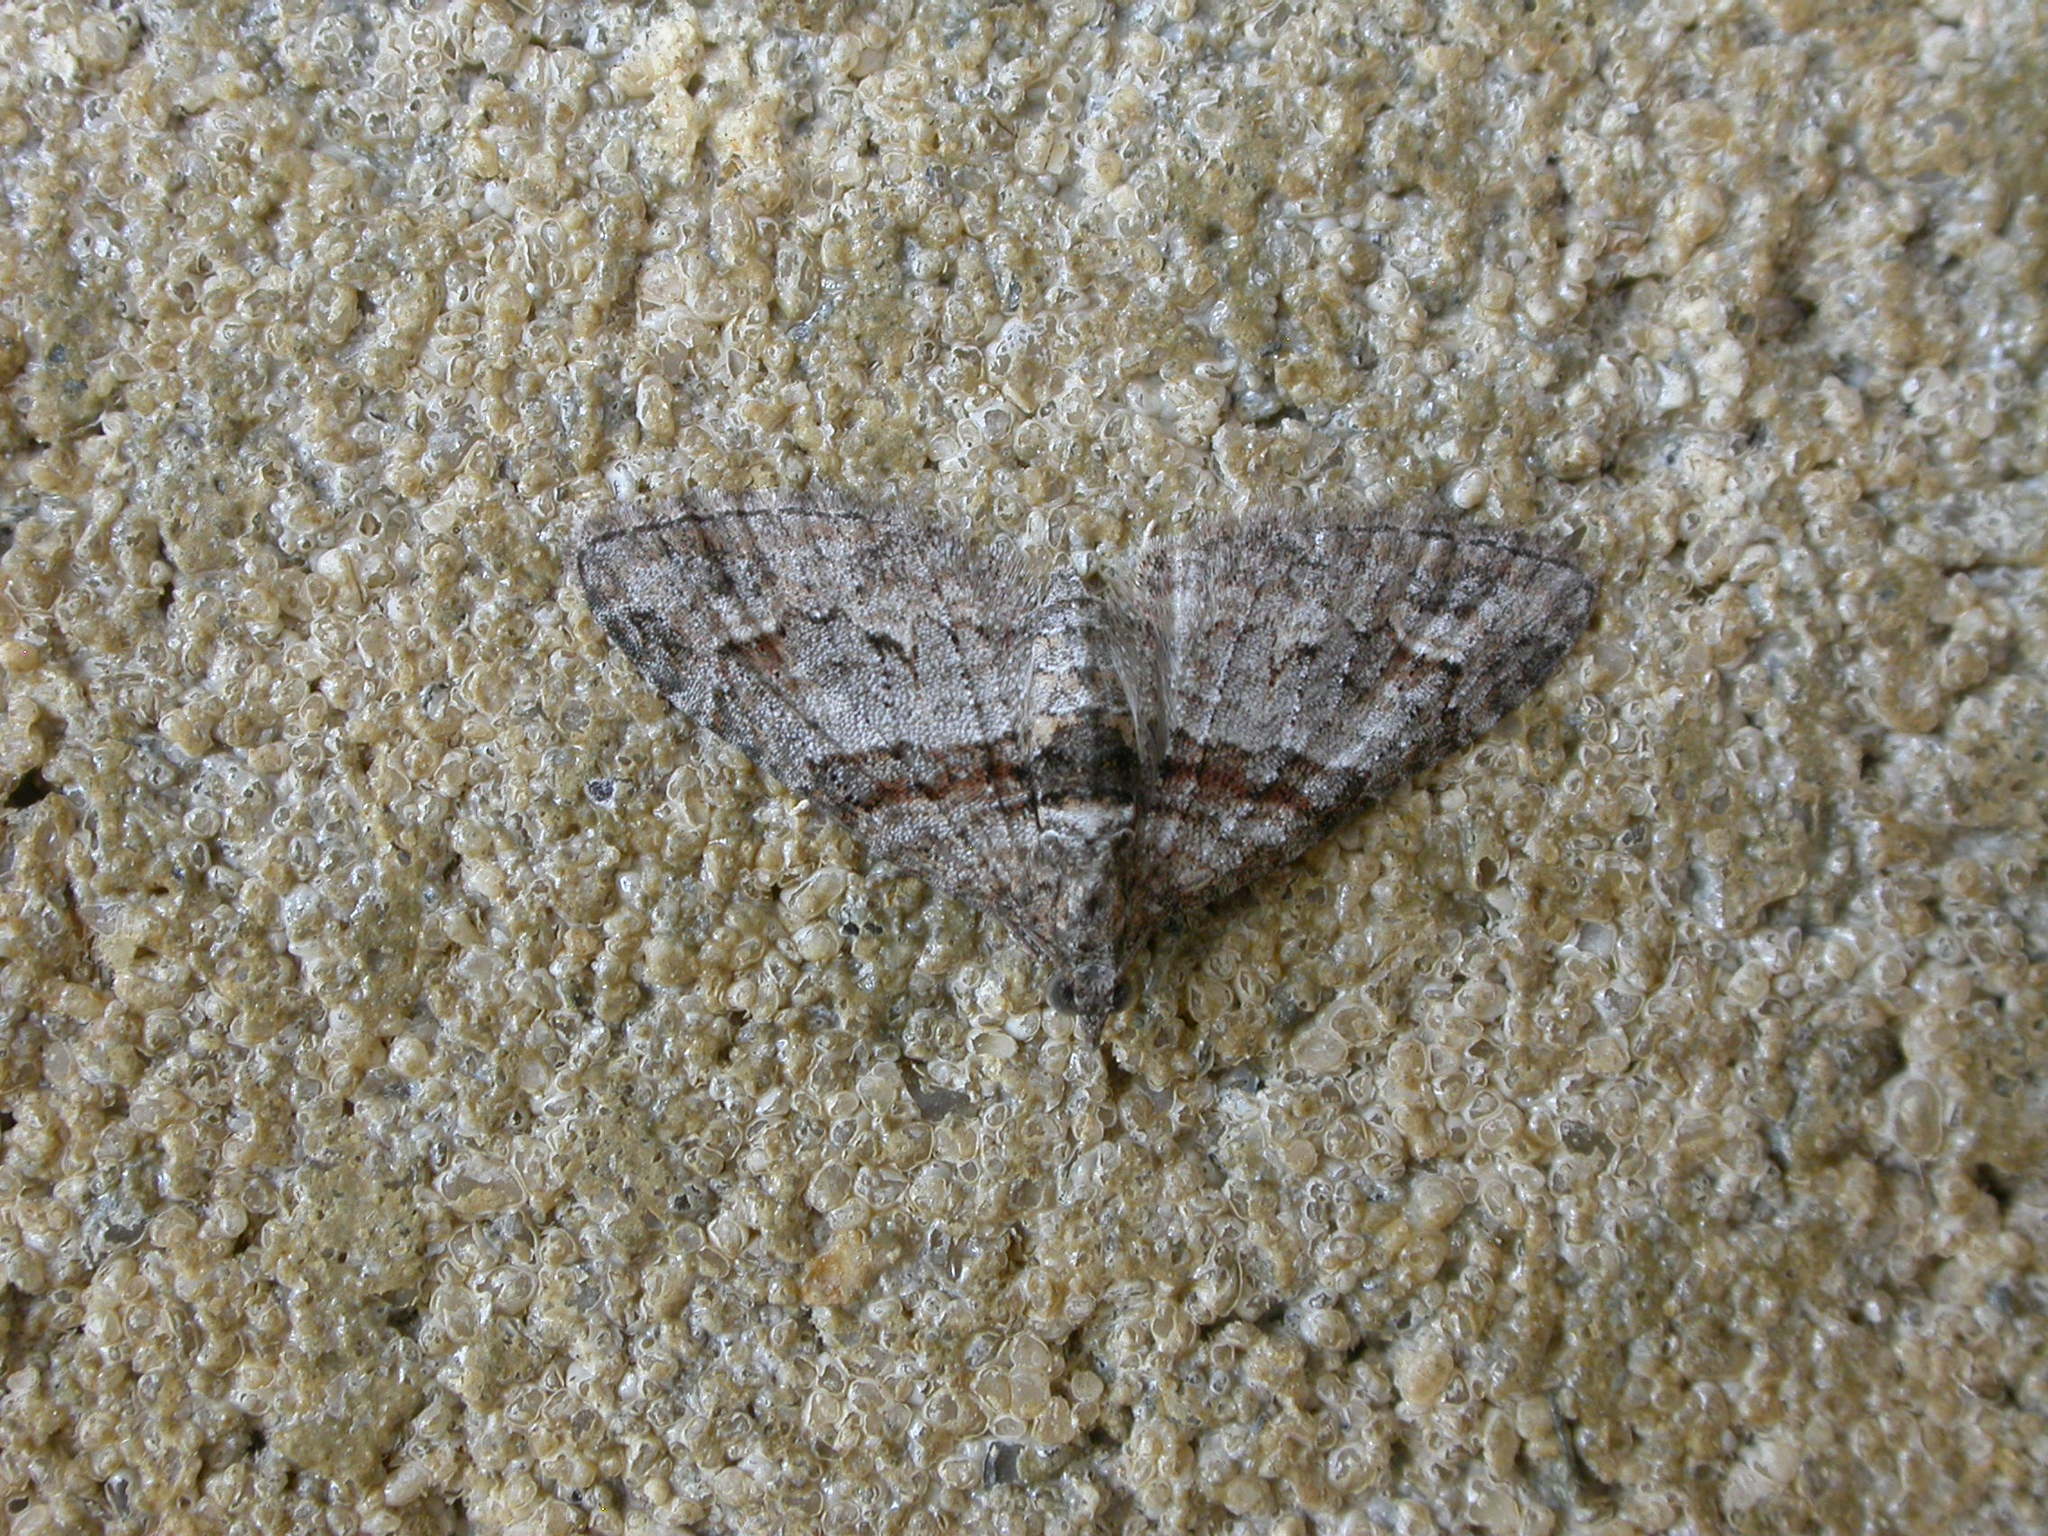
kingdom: Animalia
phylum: Arthropoda
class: Insecta
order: Lepidoptera
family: Geometridae
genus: Phrissogonus
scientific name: Phrissogonus laticostata
